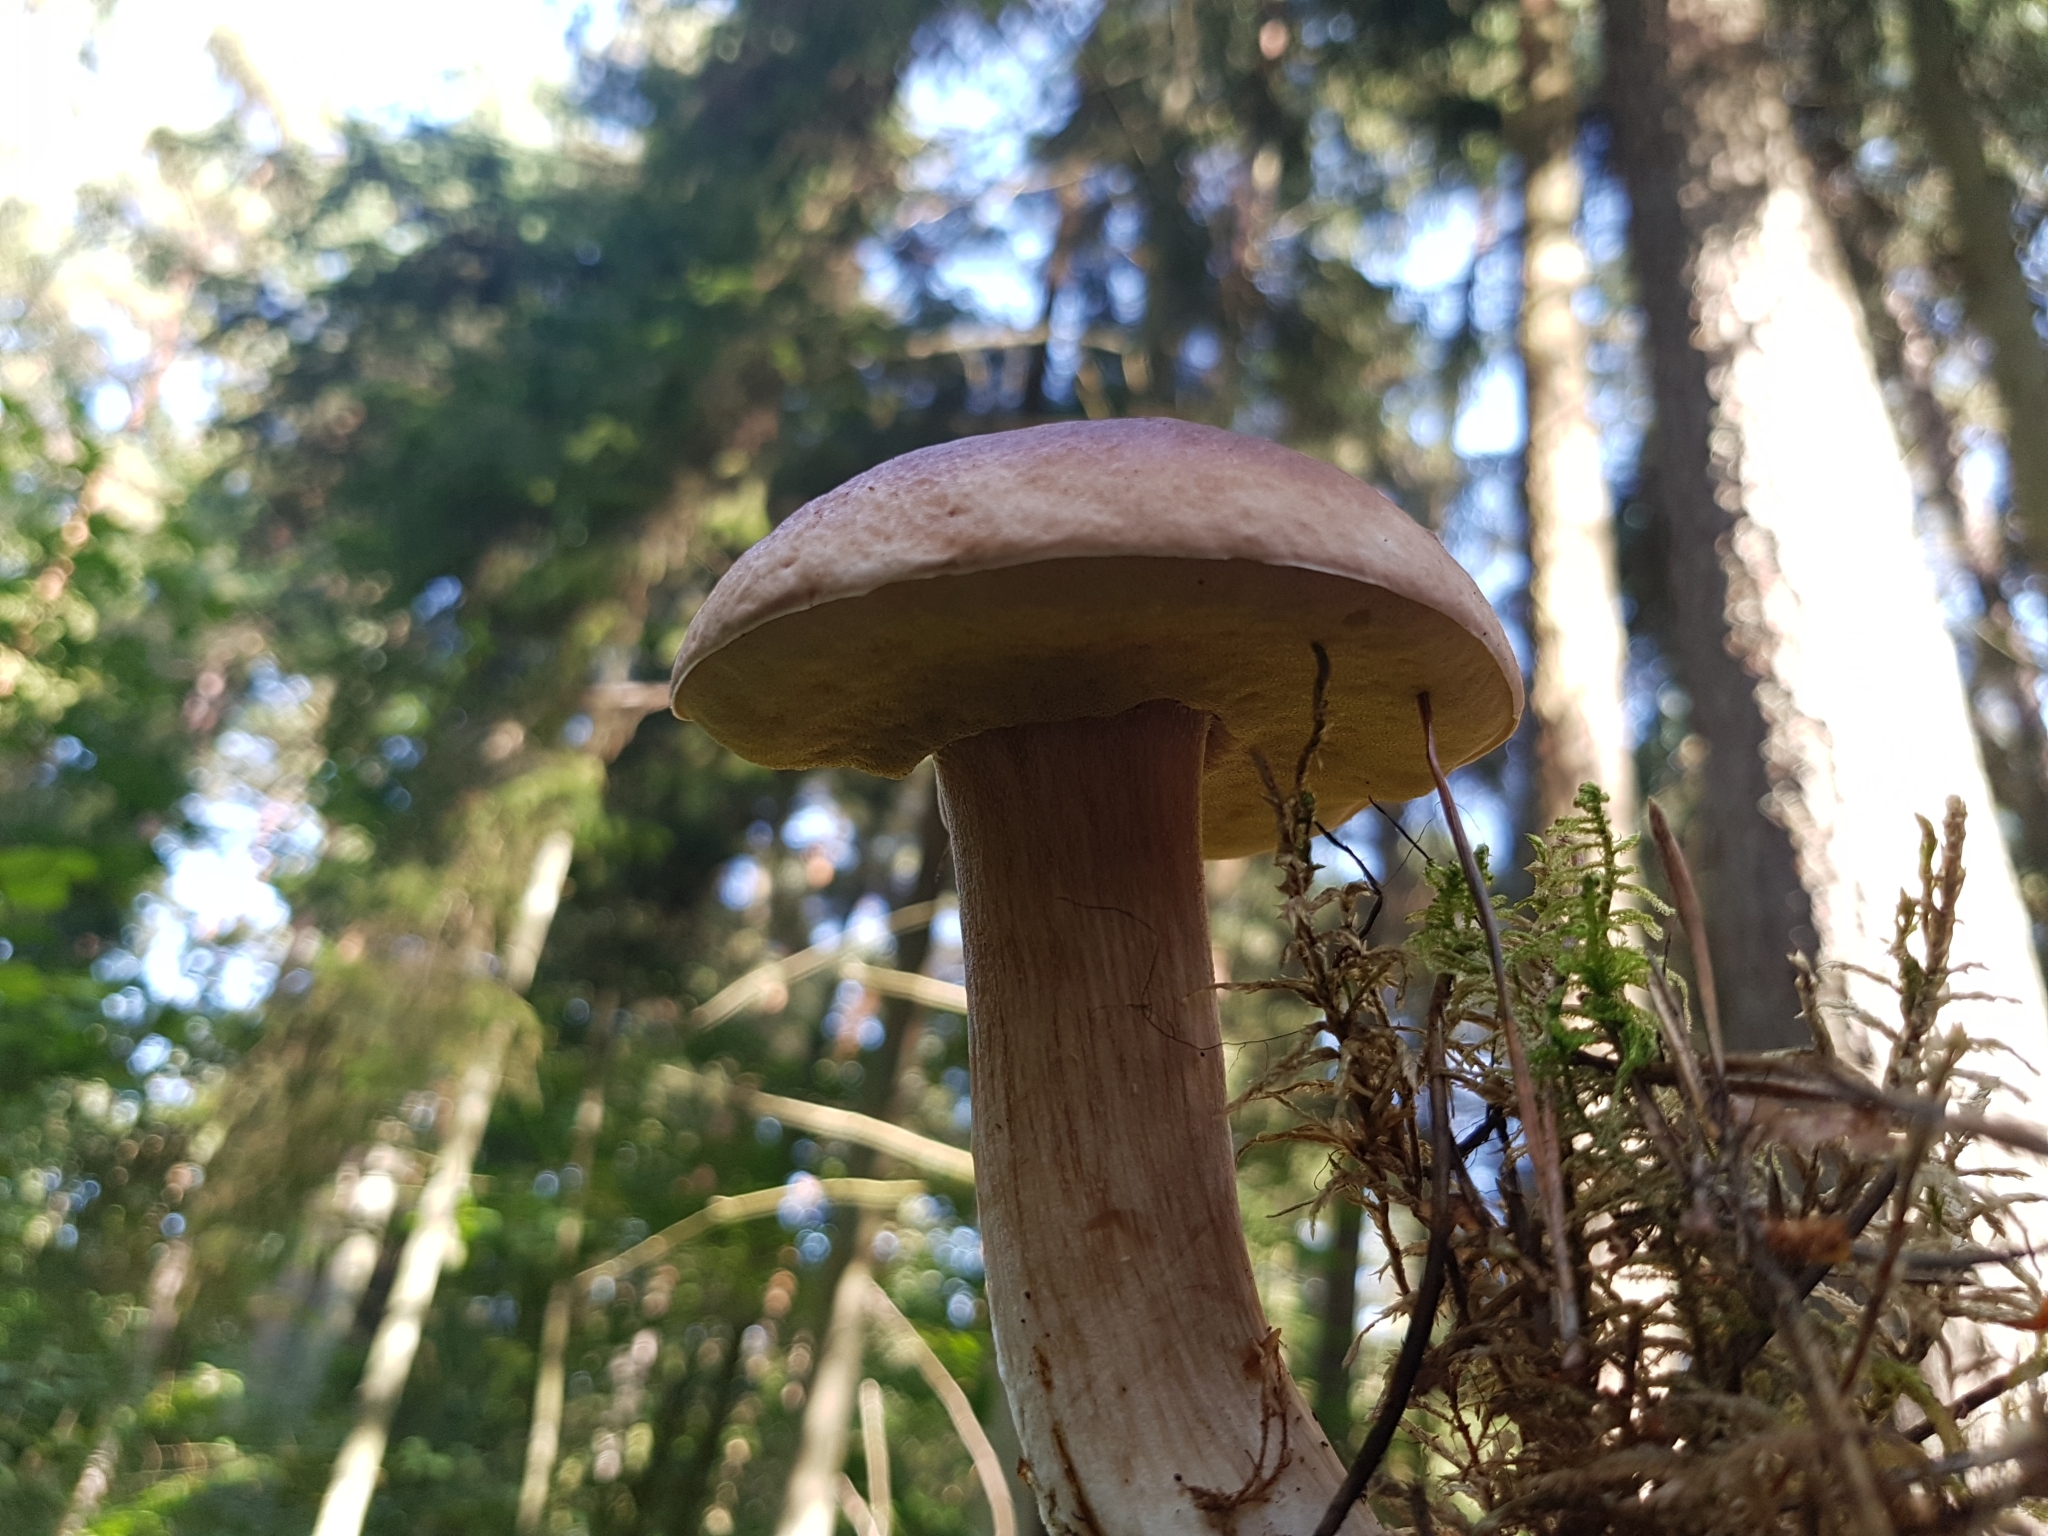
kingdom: Fungi
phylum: Basidiomycota
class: Agaricomycetes
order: Boletales
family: Boletaceae
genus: Boletus
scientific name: Boletus edulis
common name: Cep
